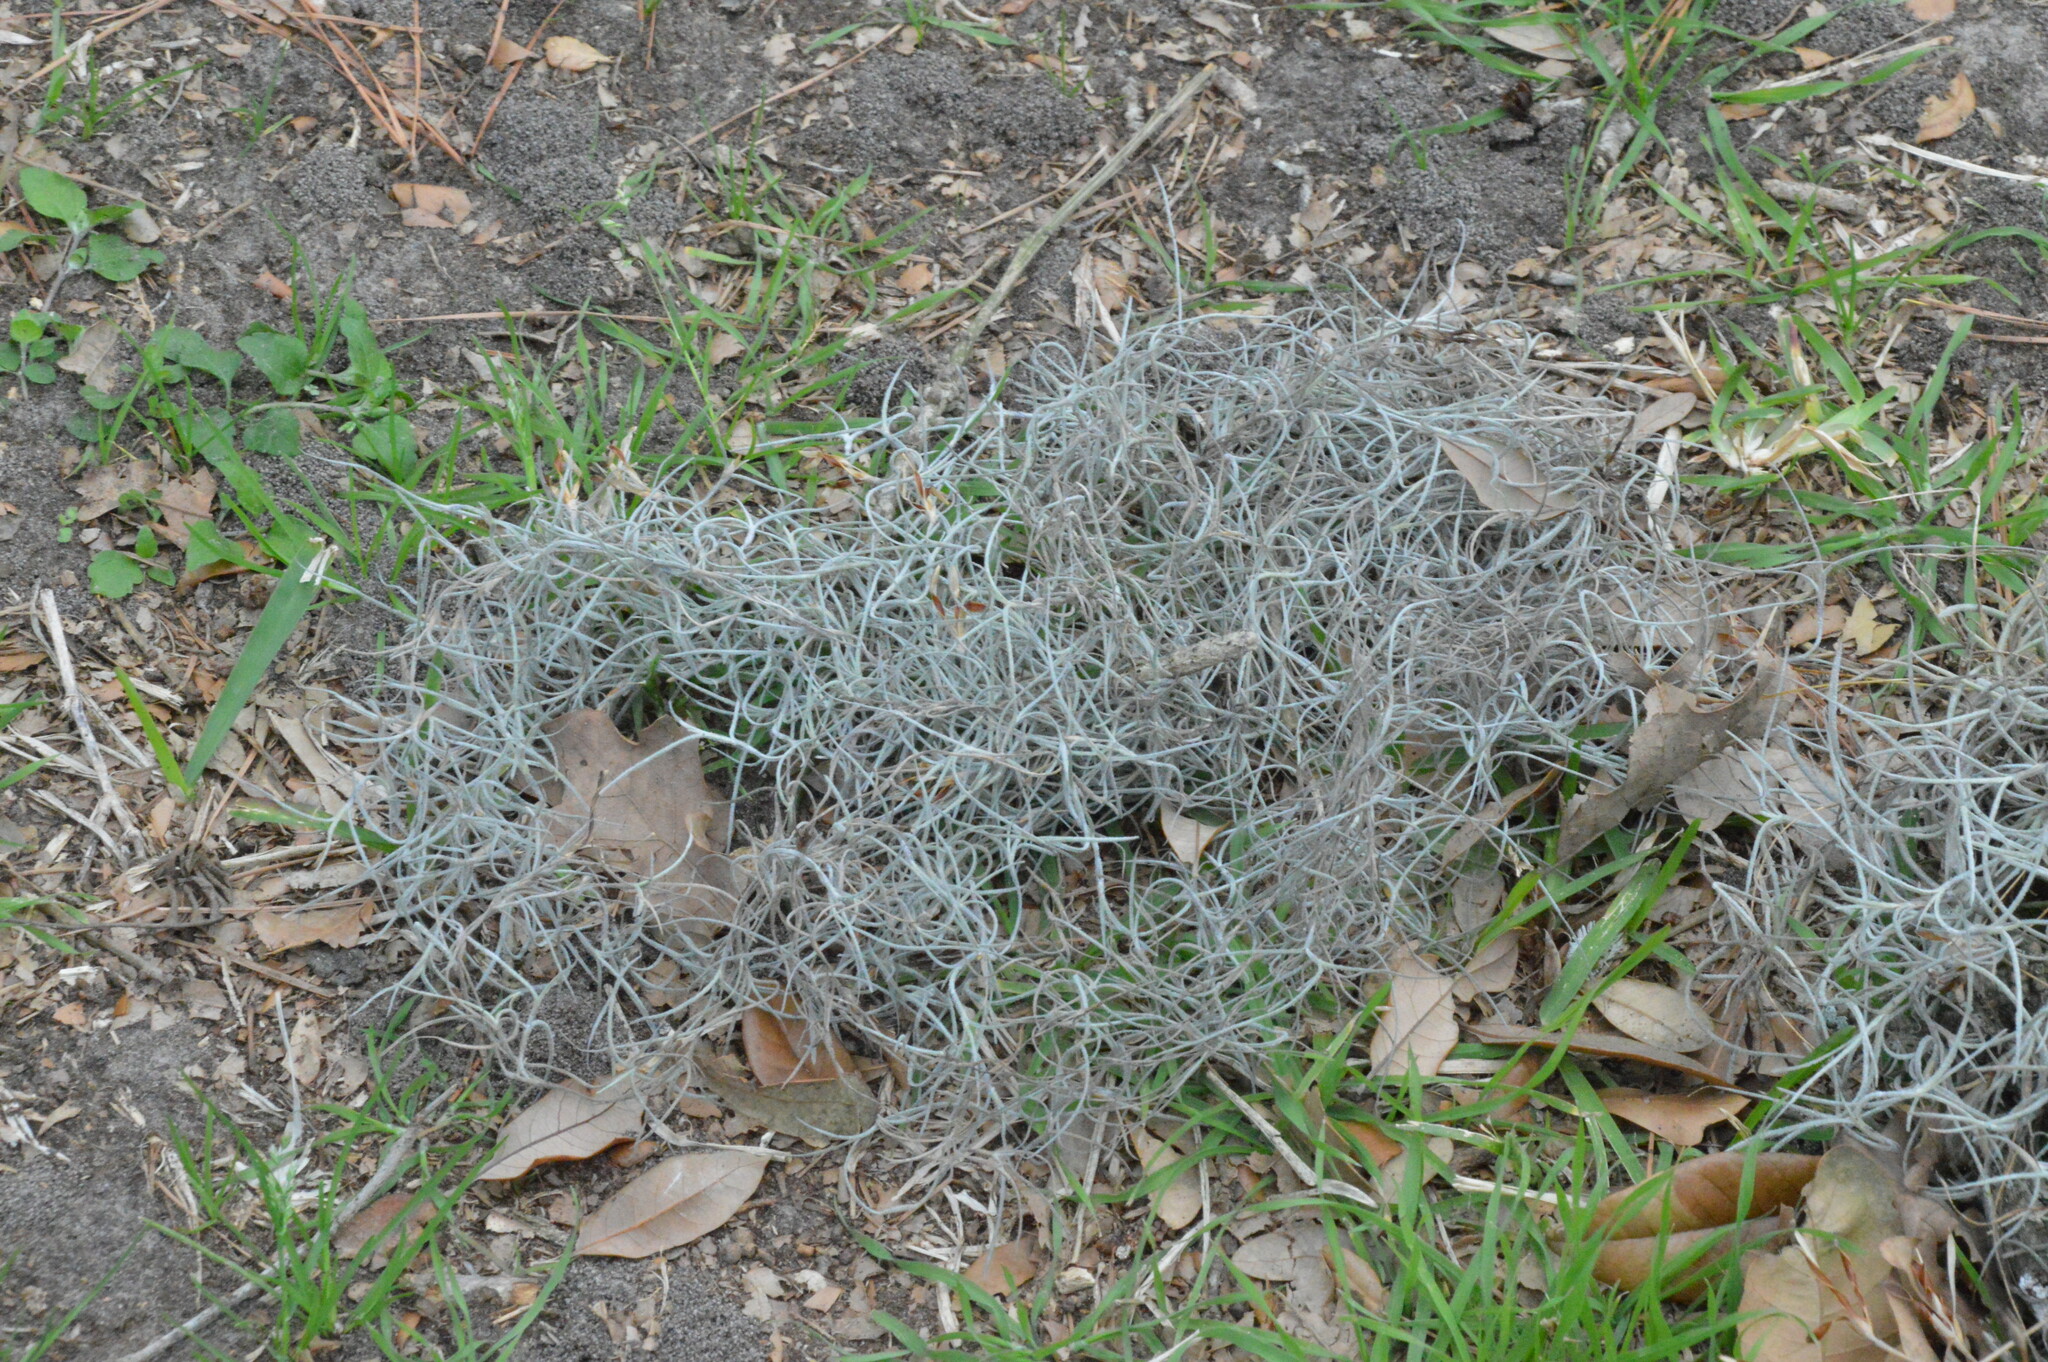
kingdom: Plantae
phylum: Tracheophyta
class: Liliopsida
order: Poales
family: Bromeliaceae
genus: Tillandsia
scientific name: Tillandsia usneoides
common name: Spanish moss
